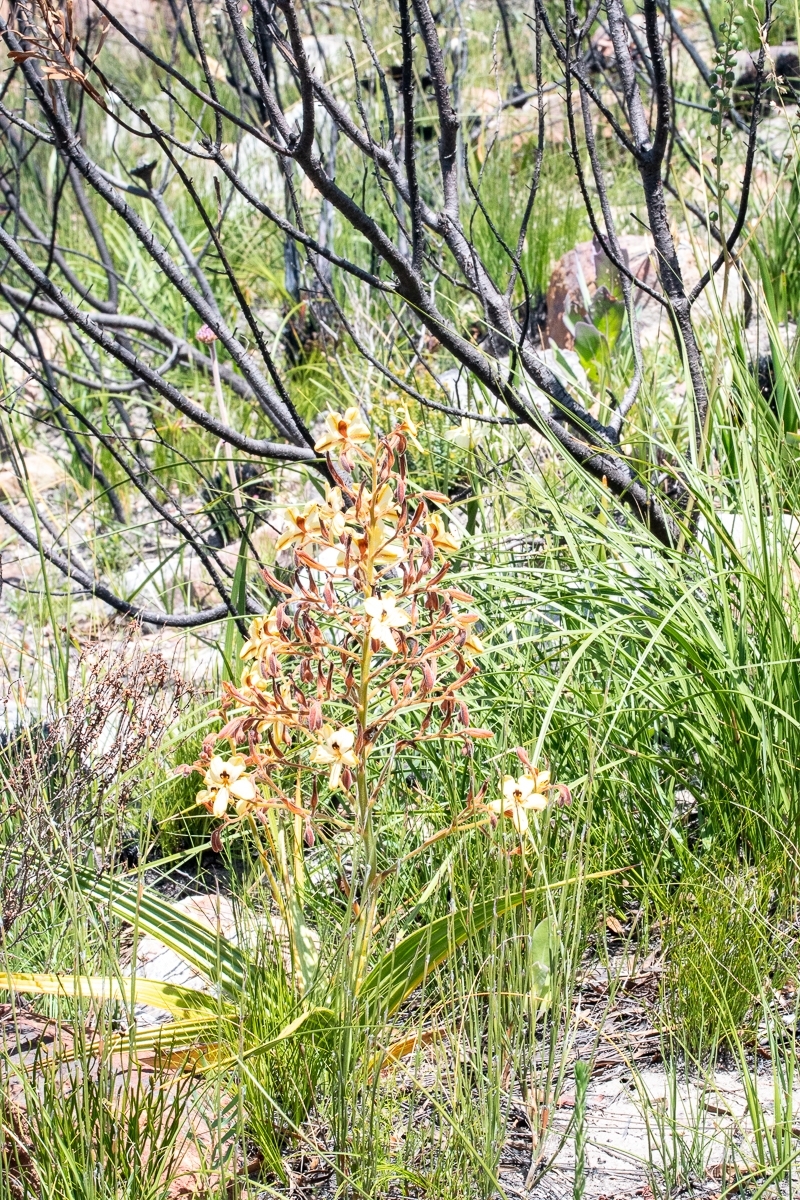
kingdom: Plantae
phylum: Tracheophyta
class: Liliopsida
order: Commelinales
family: Haemodoraceae
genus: Wachendorfia
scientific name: Wachendorfia paniculata
